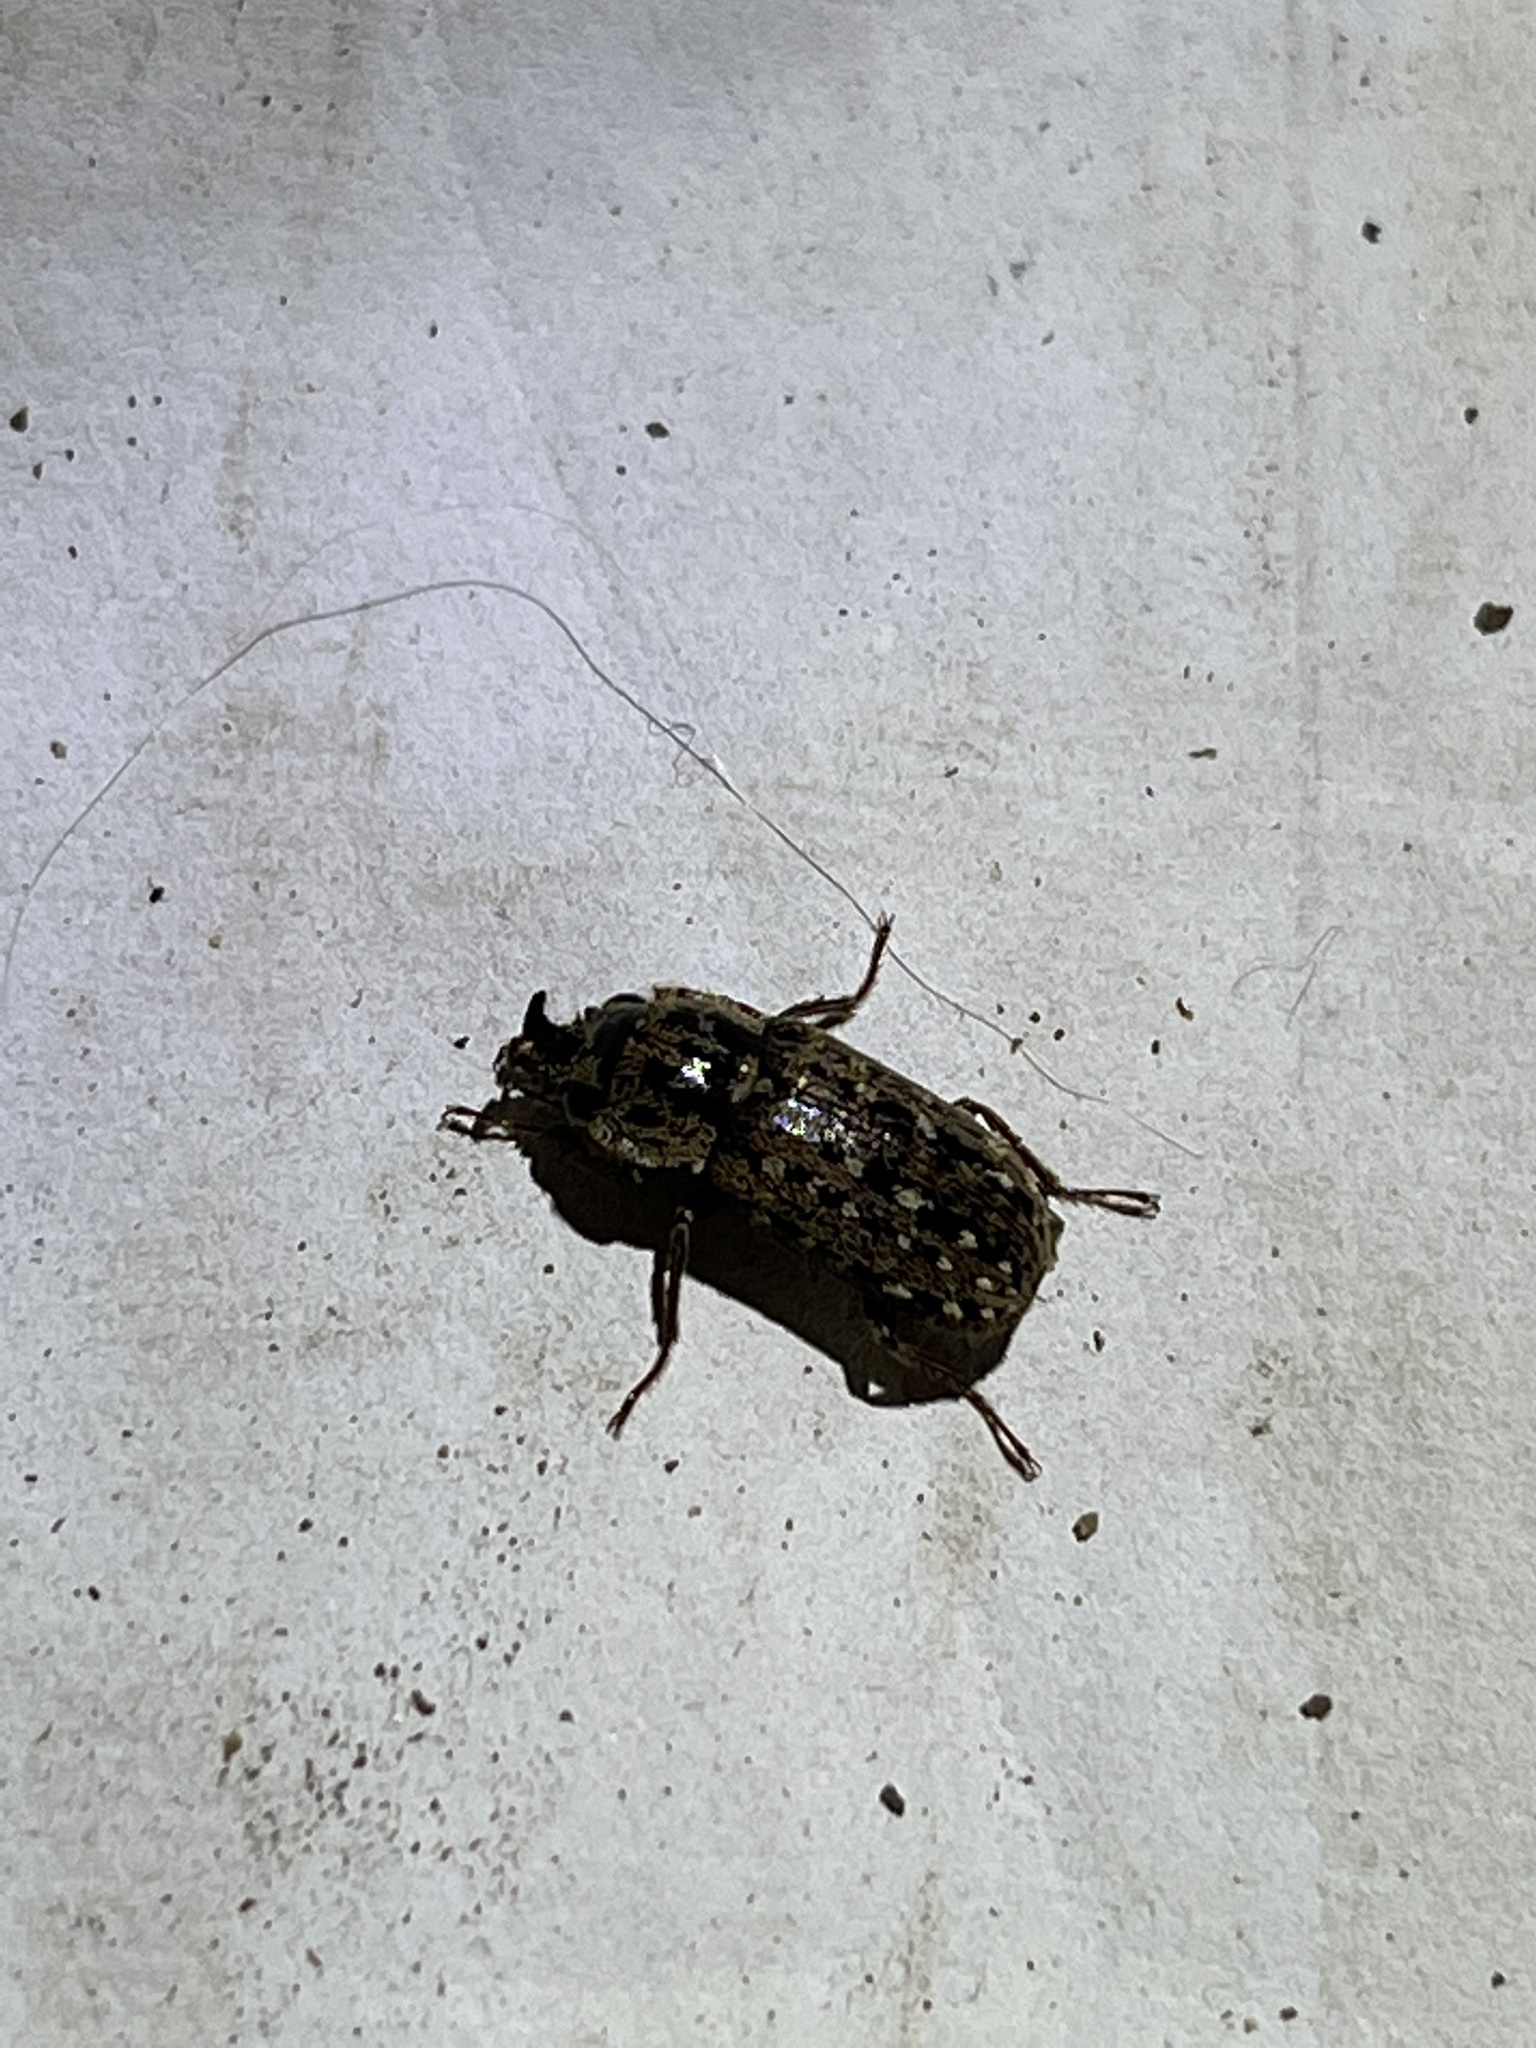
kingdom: Animalia
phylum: Arthropoda
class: Insecta
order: Coleoptera
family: Lucanidae
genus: Mitophyllus
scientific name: Mitophyllus irroratus
